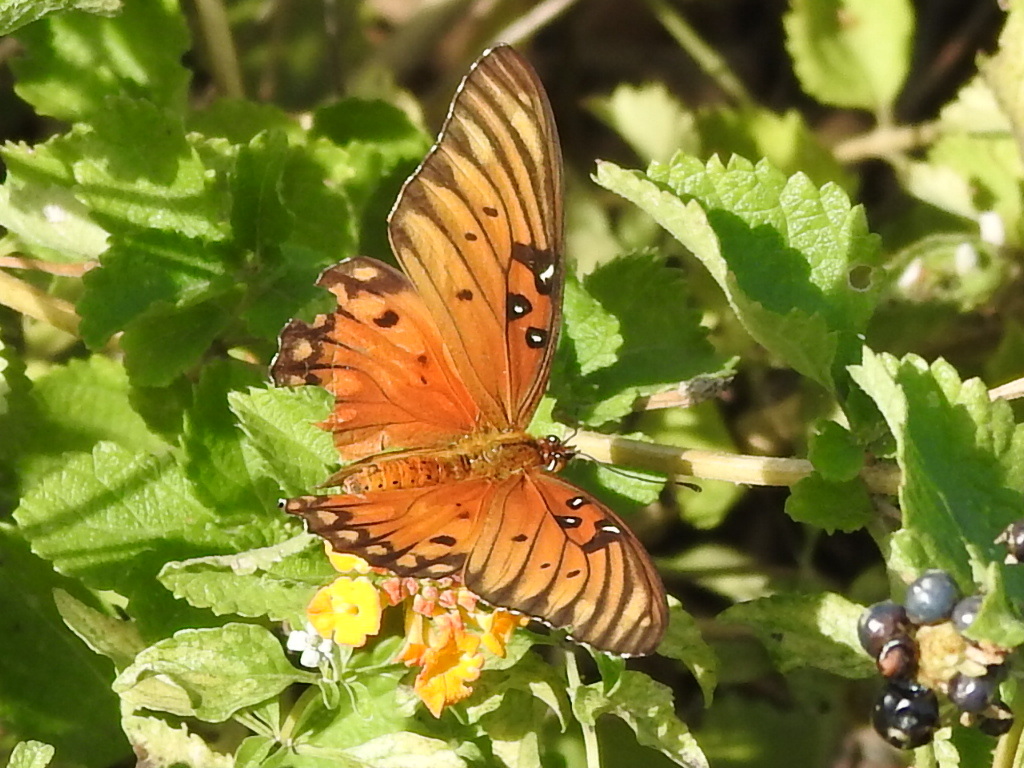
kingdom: Animalia
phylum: Arthropoda
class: Insecta
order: Lepidoptera
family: Nymphalidae
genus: Dione
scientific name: Dione vanillae
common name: Gulf fritillary
